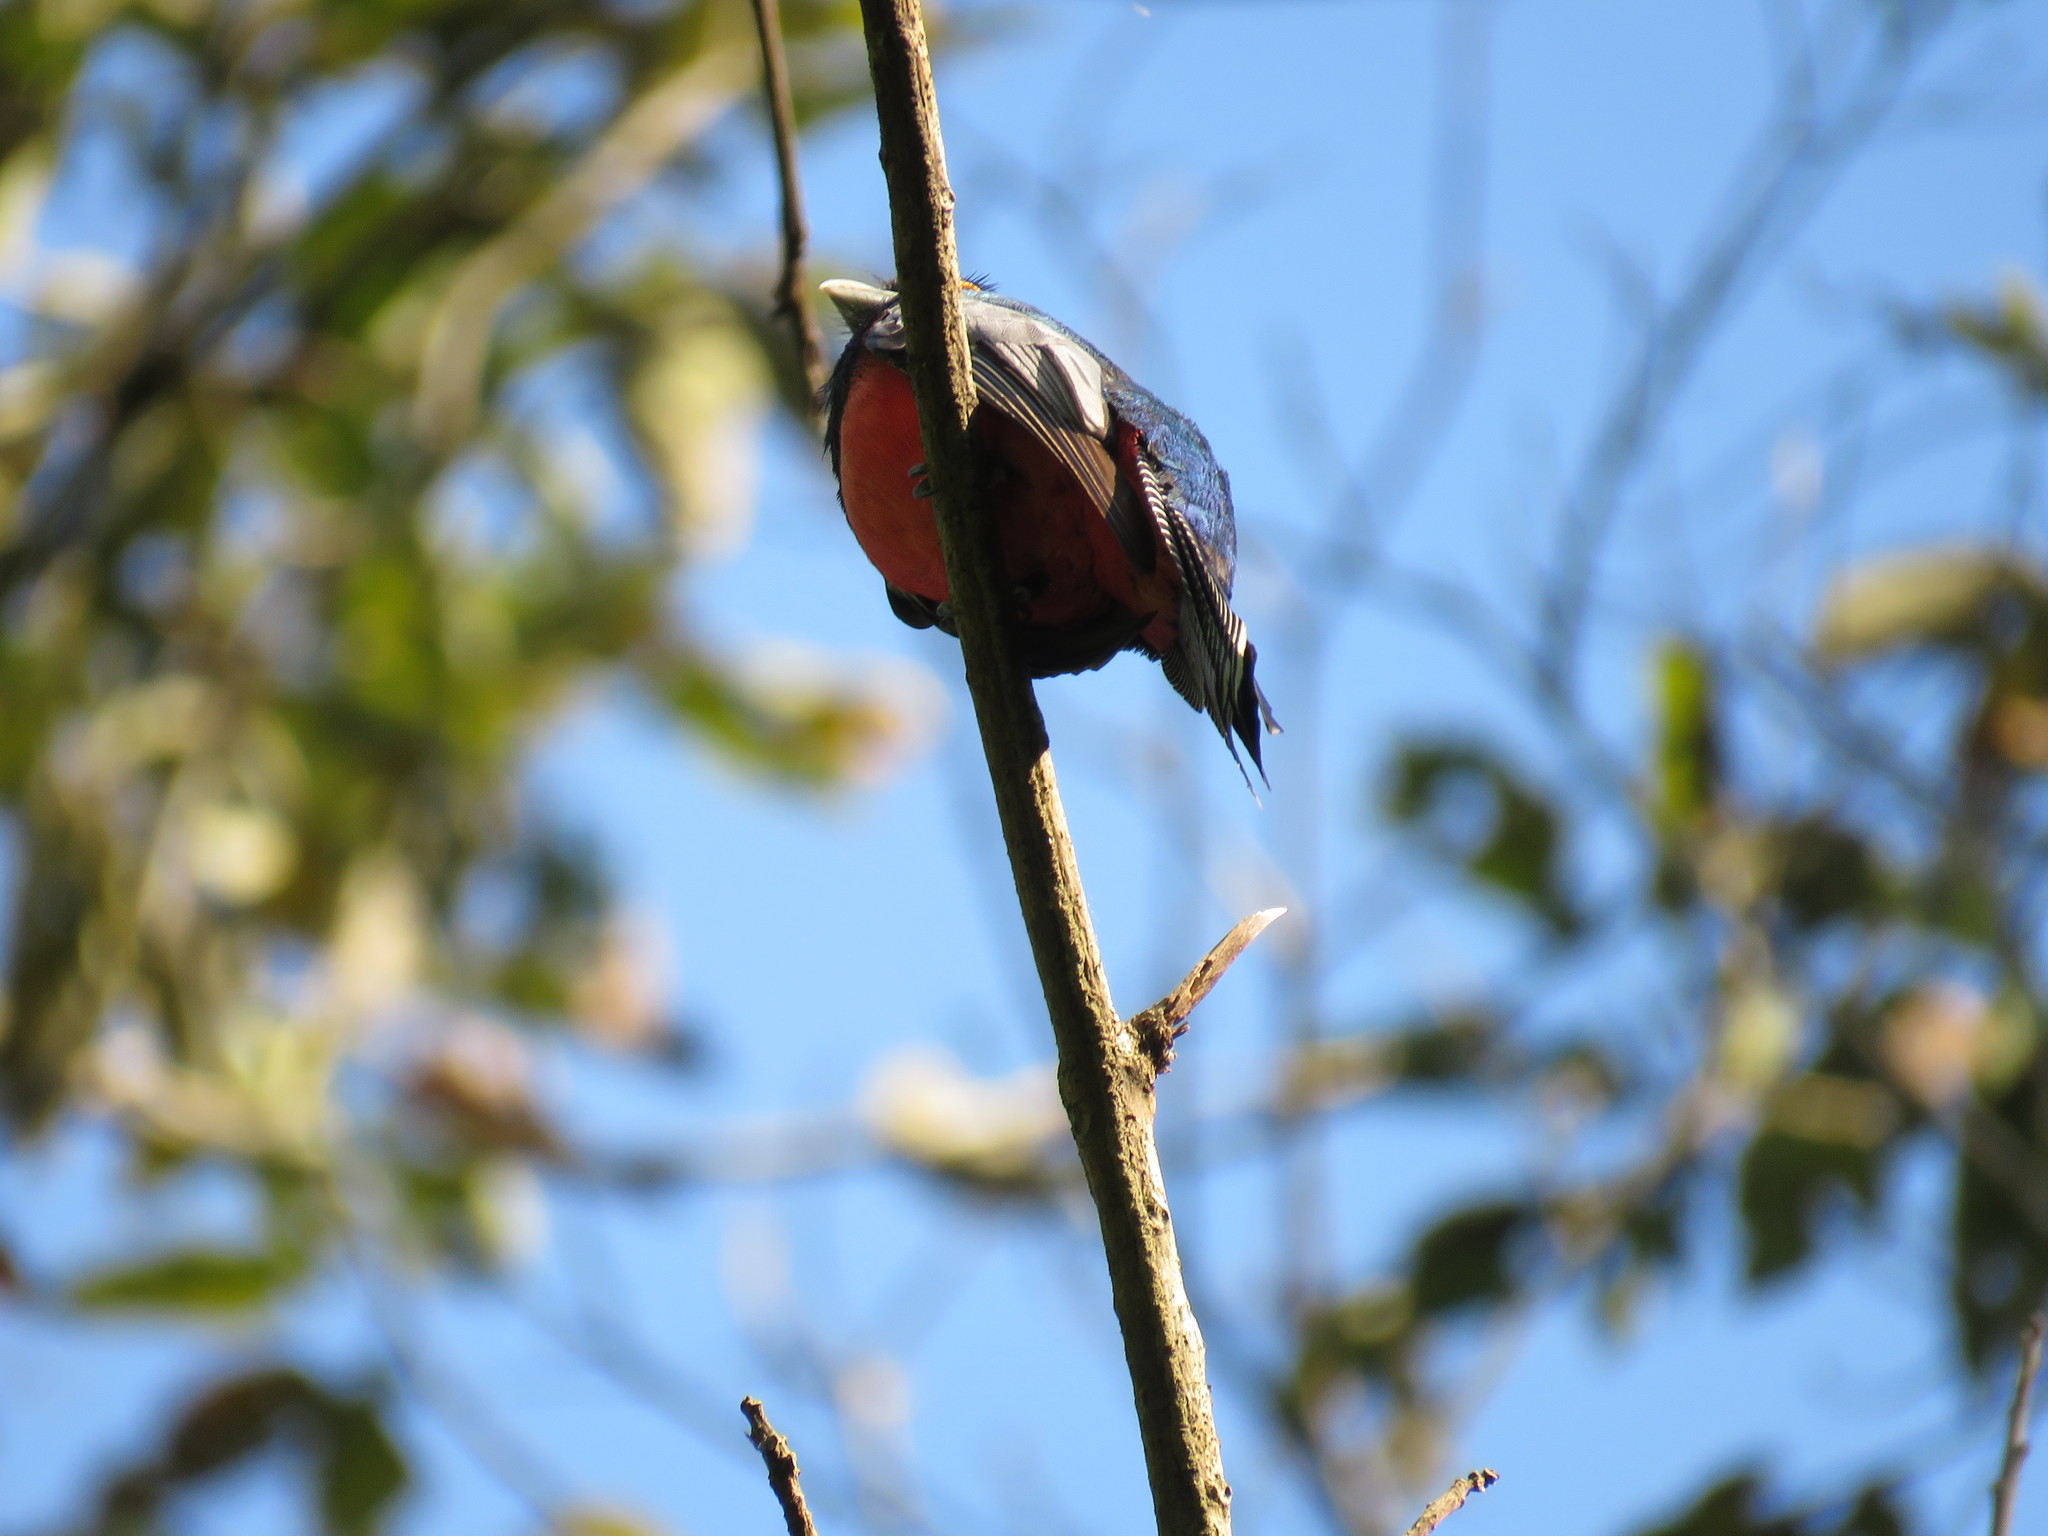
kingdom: Animalia
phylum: Chordata
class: Aves
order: Trogoniformes
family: Trogonidae
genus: Trogon
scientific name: Trogon curucui
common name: Blue-crowned trogon
